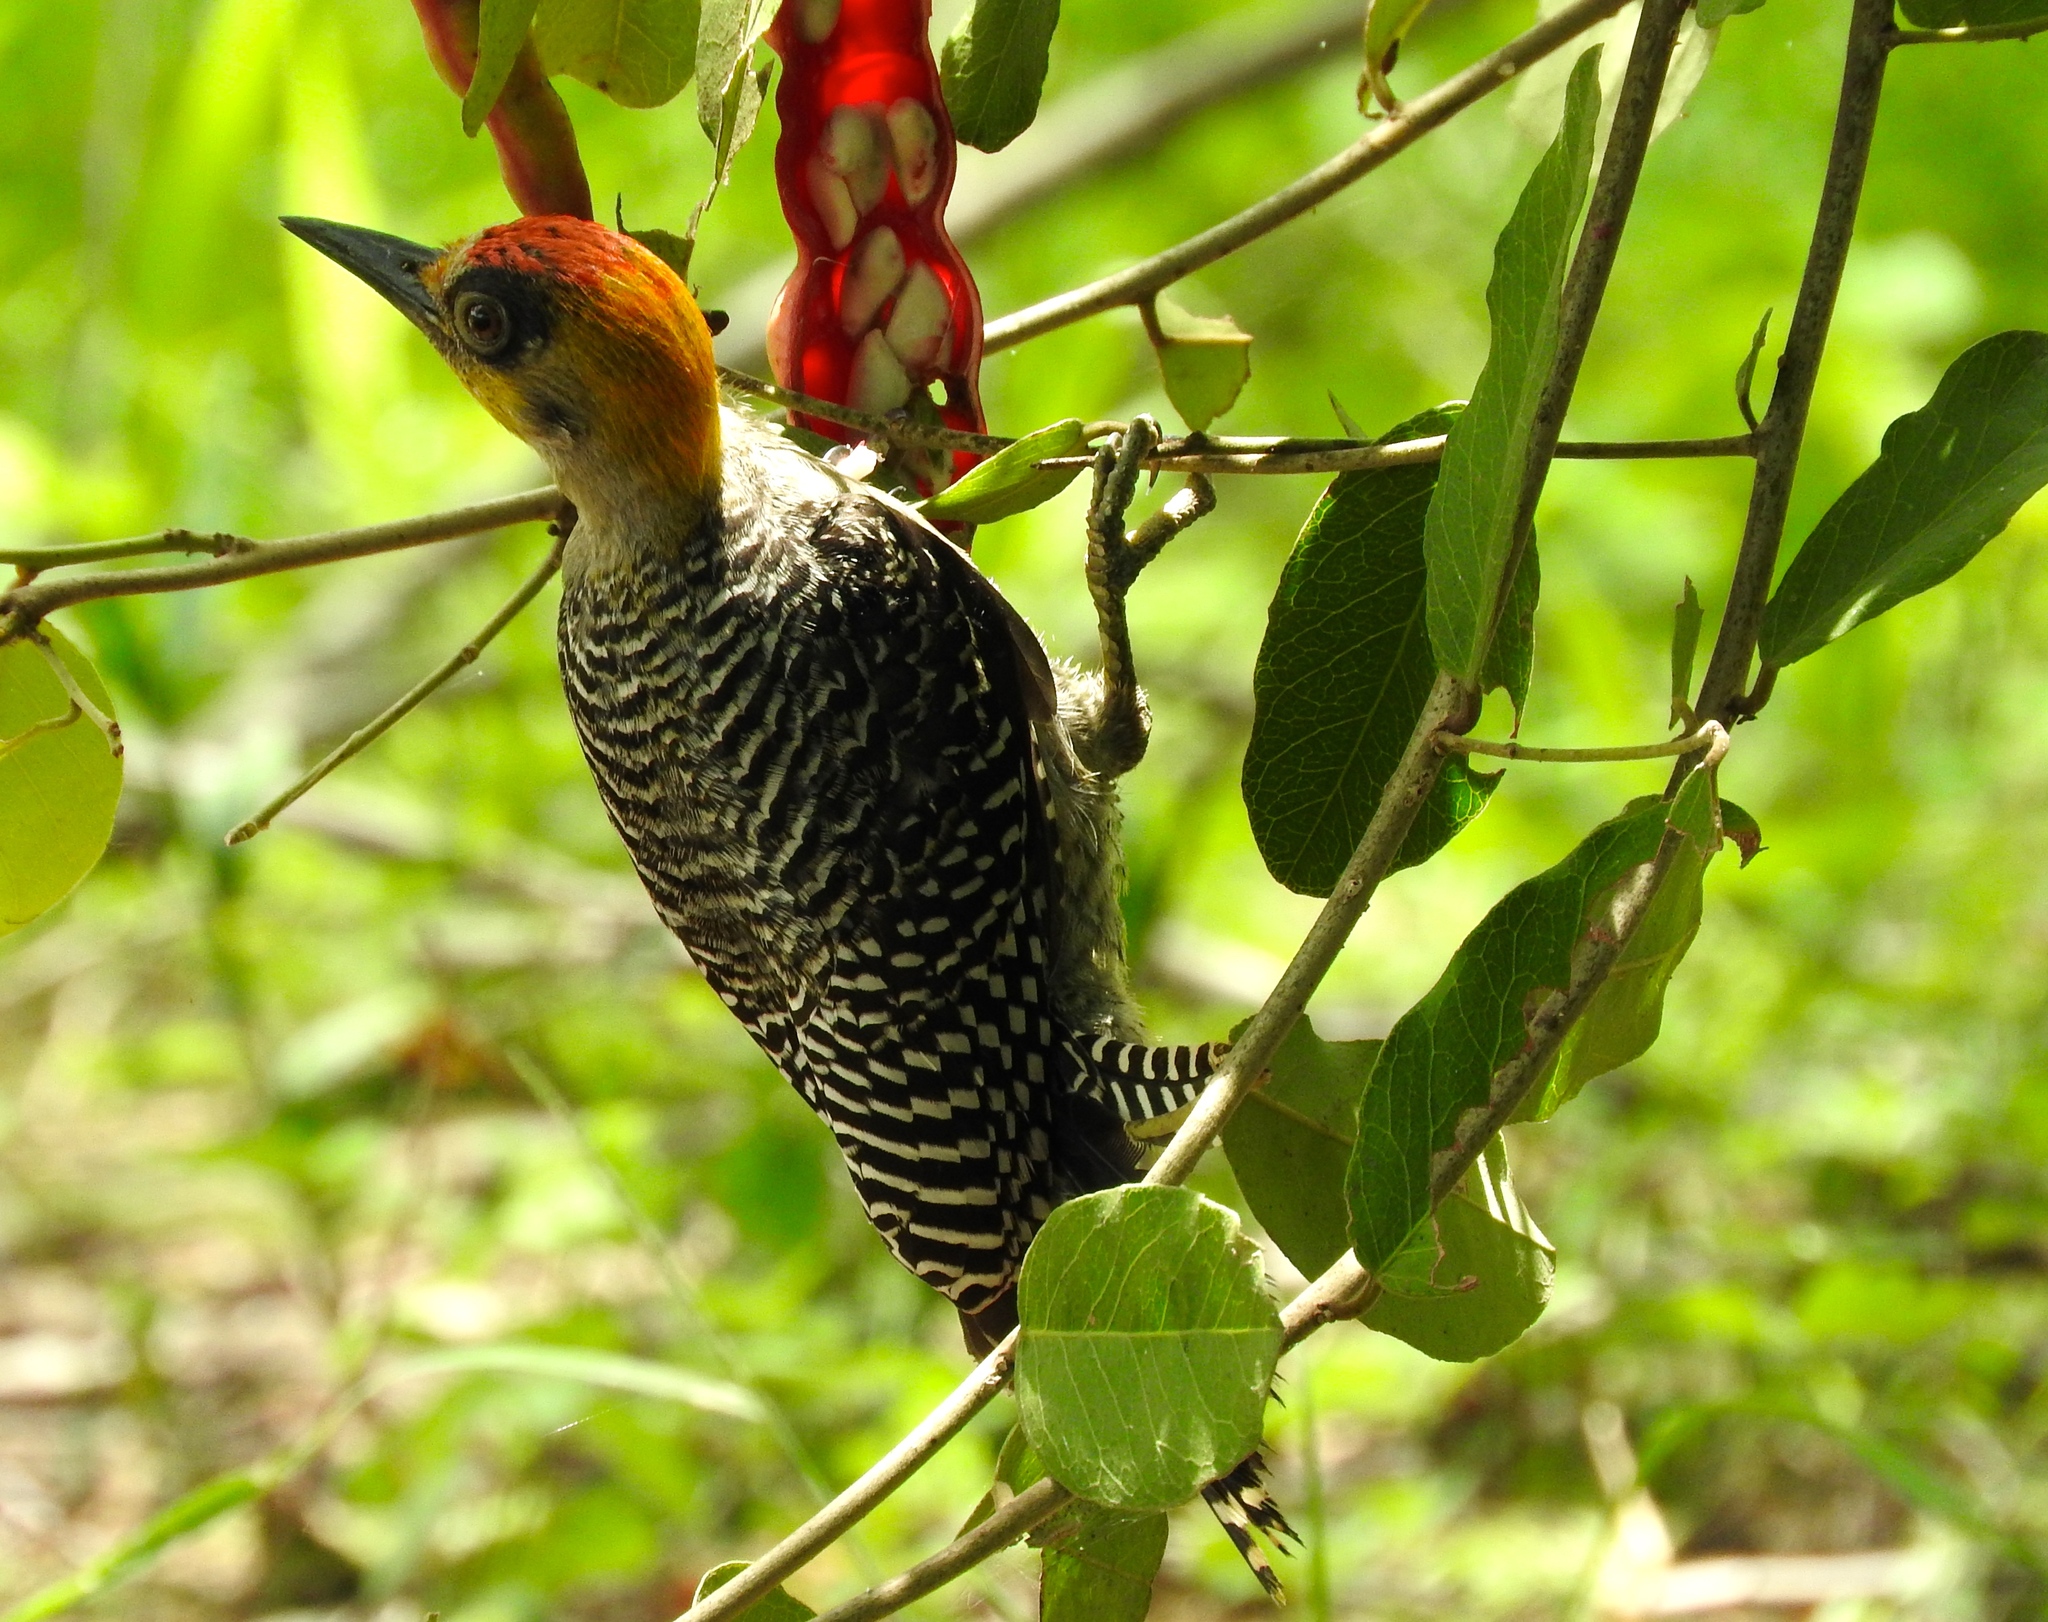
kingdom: Animalia
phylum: Chordata
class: Aves
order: Piciformes
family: Picidae
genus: Melanerpes
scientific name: Melanerpes chrysogenys
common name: Golden-cheeked woodpecker
